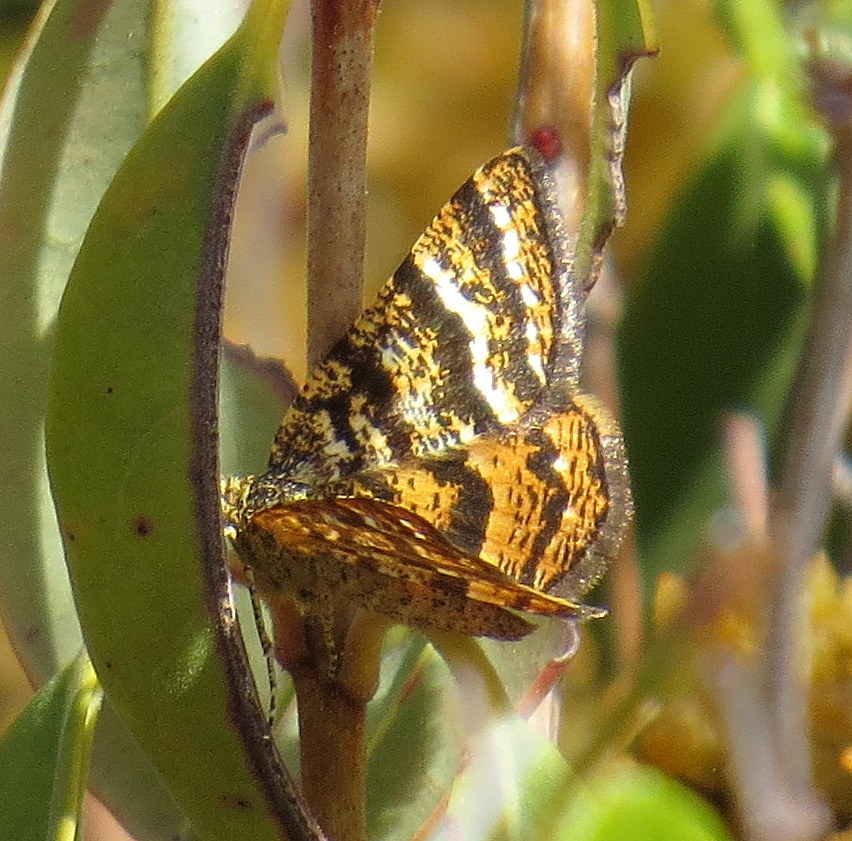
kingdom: Animalia
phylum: Arthropoda
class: Insecta
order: Lepidoptera
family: Geometridae
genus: Macaria
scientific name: Macaria truncataria
